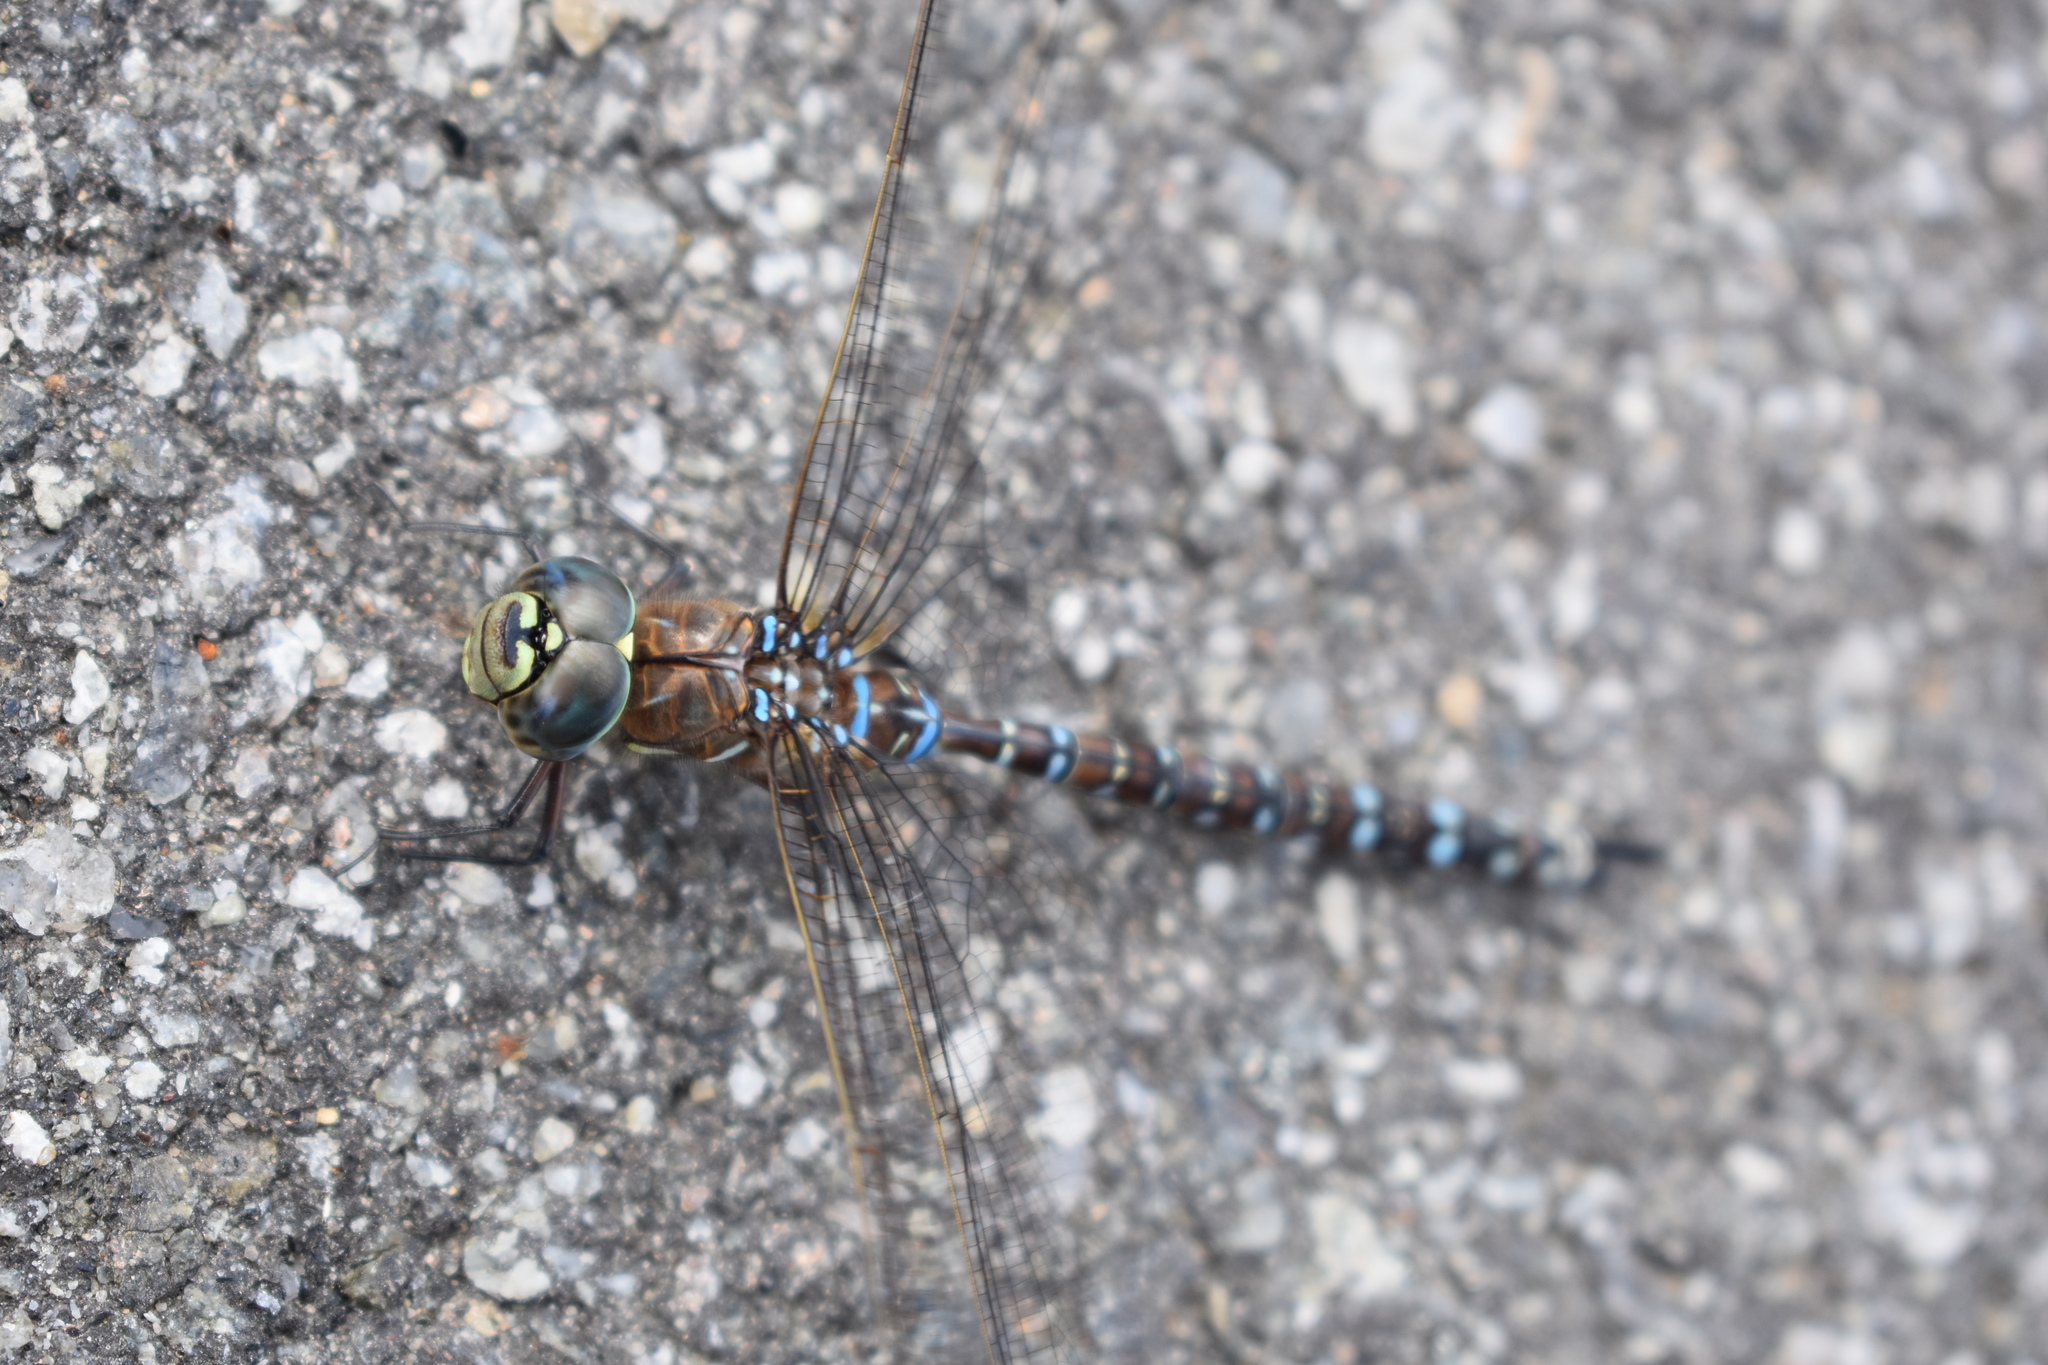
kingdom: Animalia
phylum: Arthropoda
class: Insecta
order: Odonata
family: Aeshnidae
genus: Aeshna
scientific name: Aeshna interrupta
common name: Variable darner
